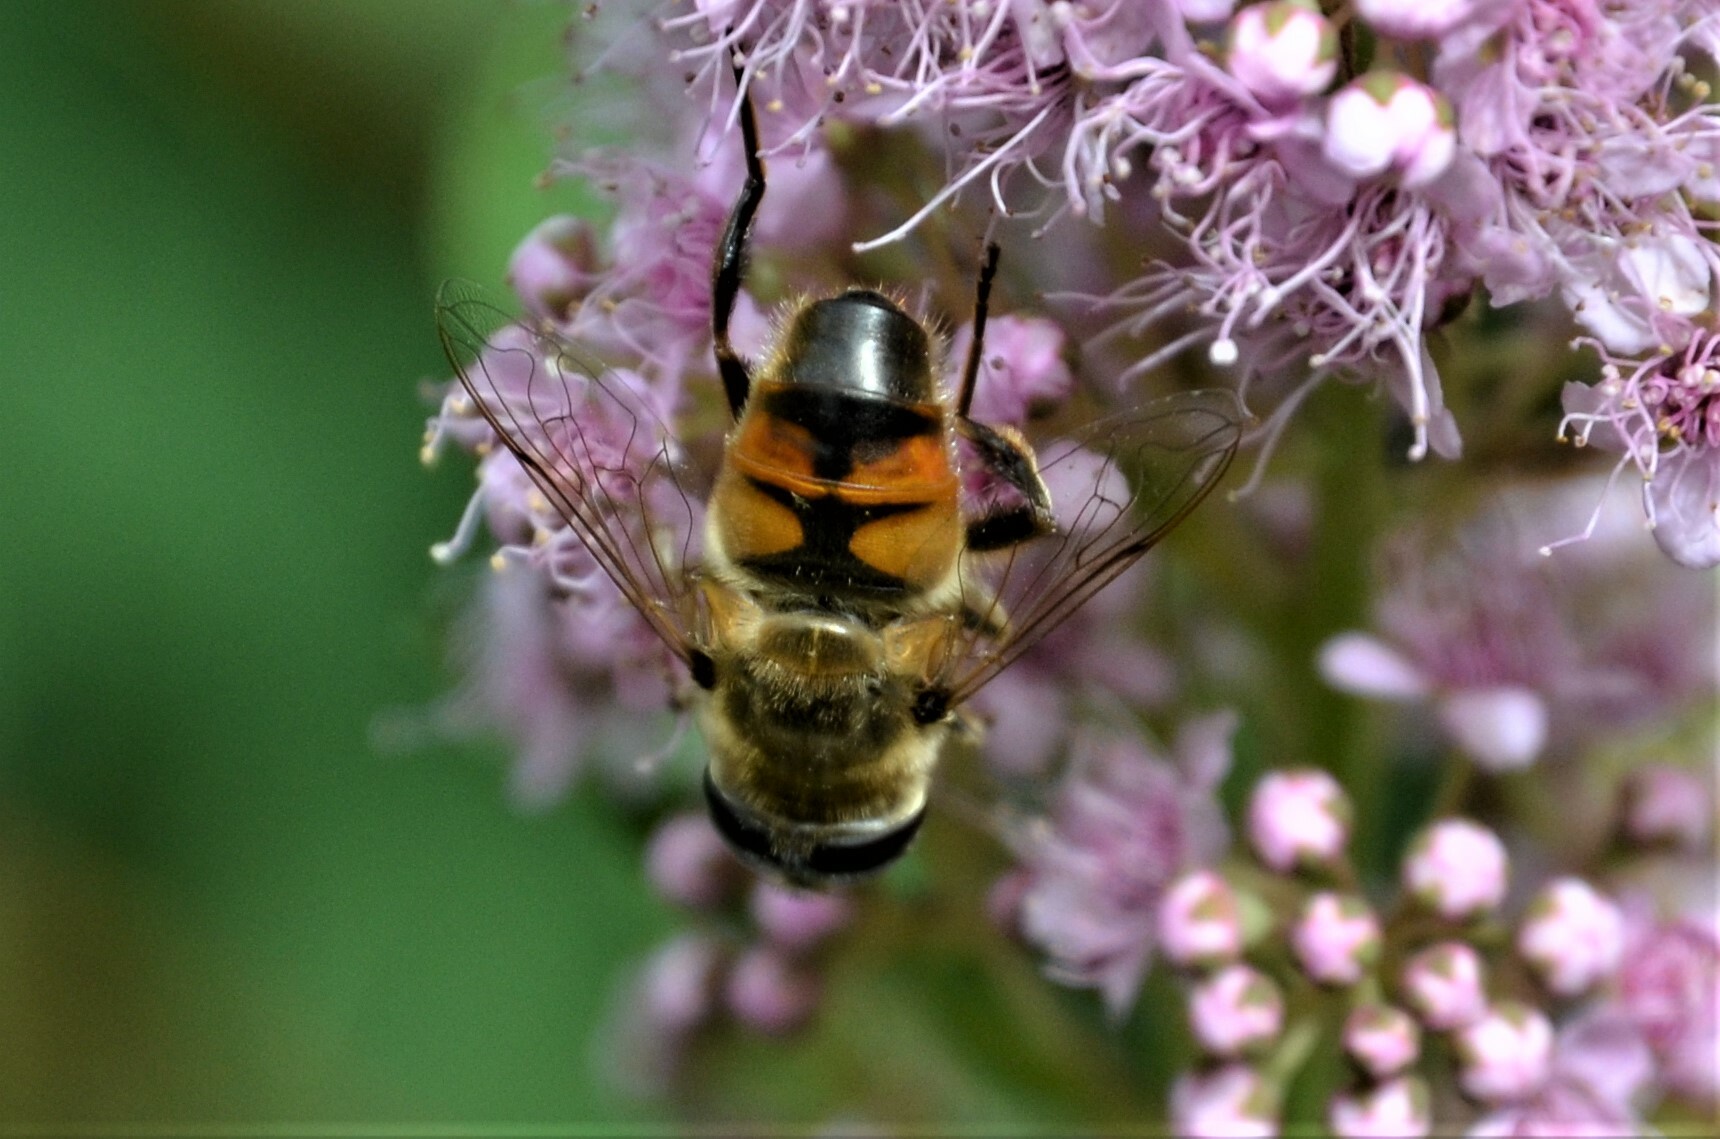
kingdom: Animalia
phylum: Arthropoda
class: Insecta
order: Diptera
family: Syrphidae
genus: Eristalis
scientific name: Eristalis tenax
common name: Drone fly
